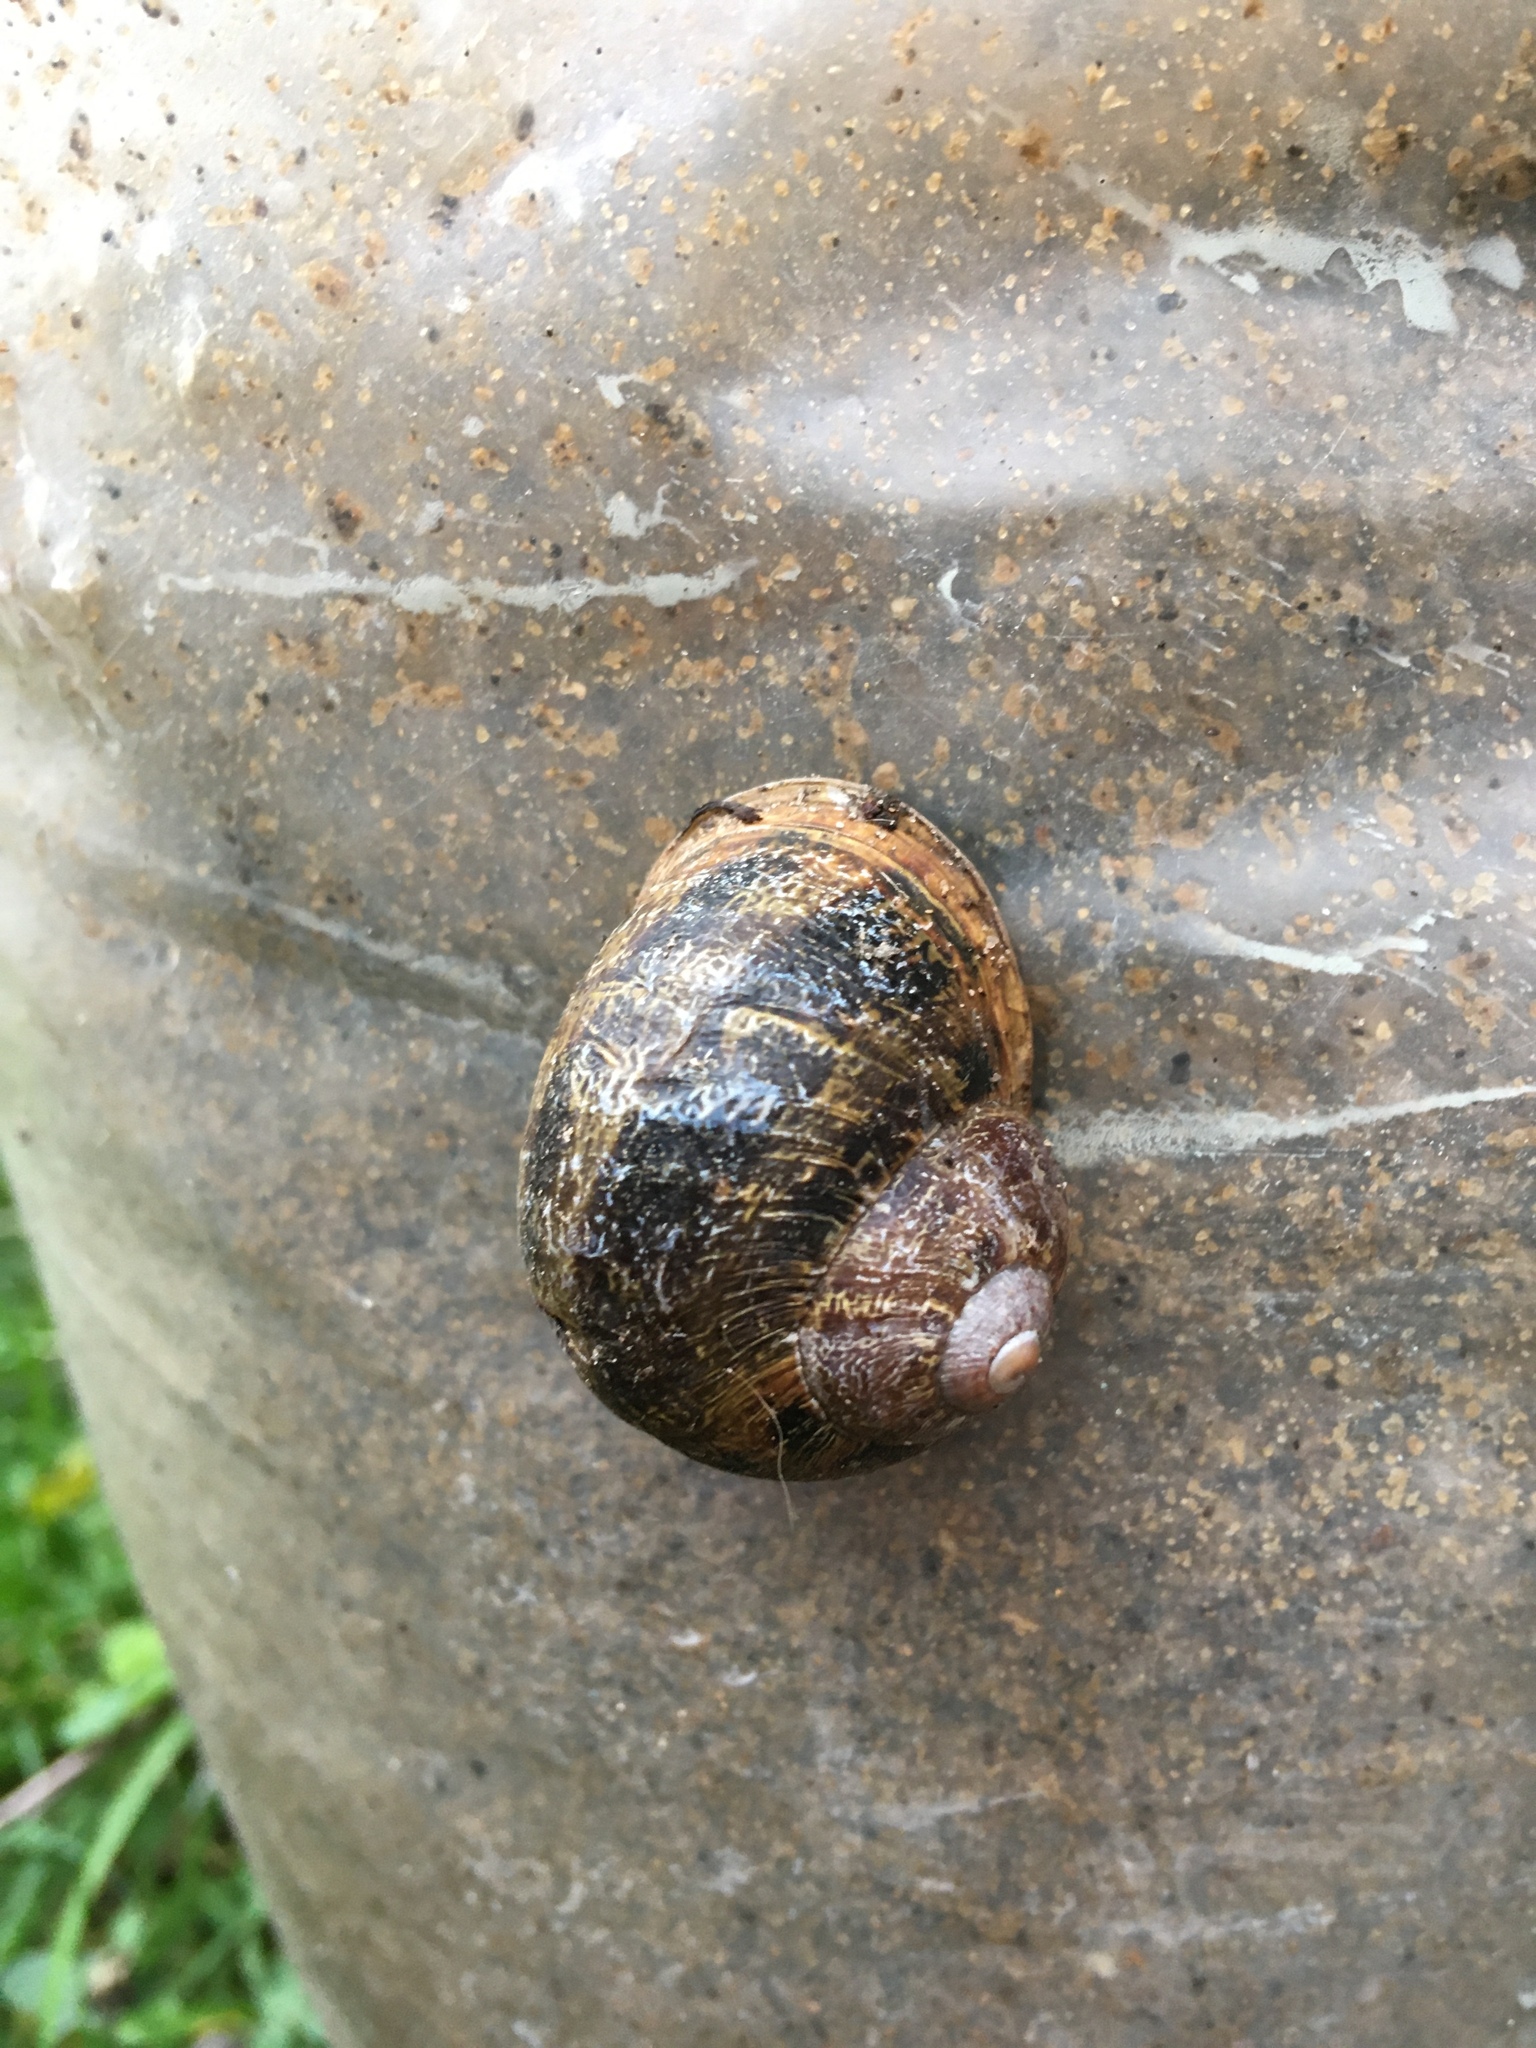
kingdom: Animalia
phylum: Mollusca
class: Gastropoda
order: Stylommatophora
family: Helicidae
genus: Cornu
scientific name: Cornu aspersum
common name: Brown garden snail
